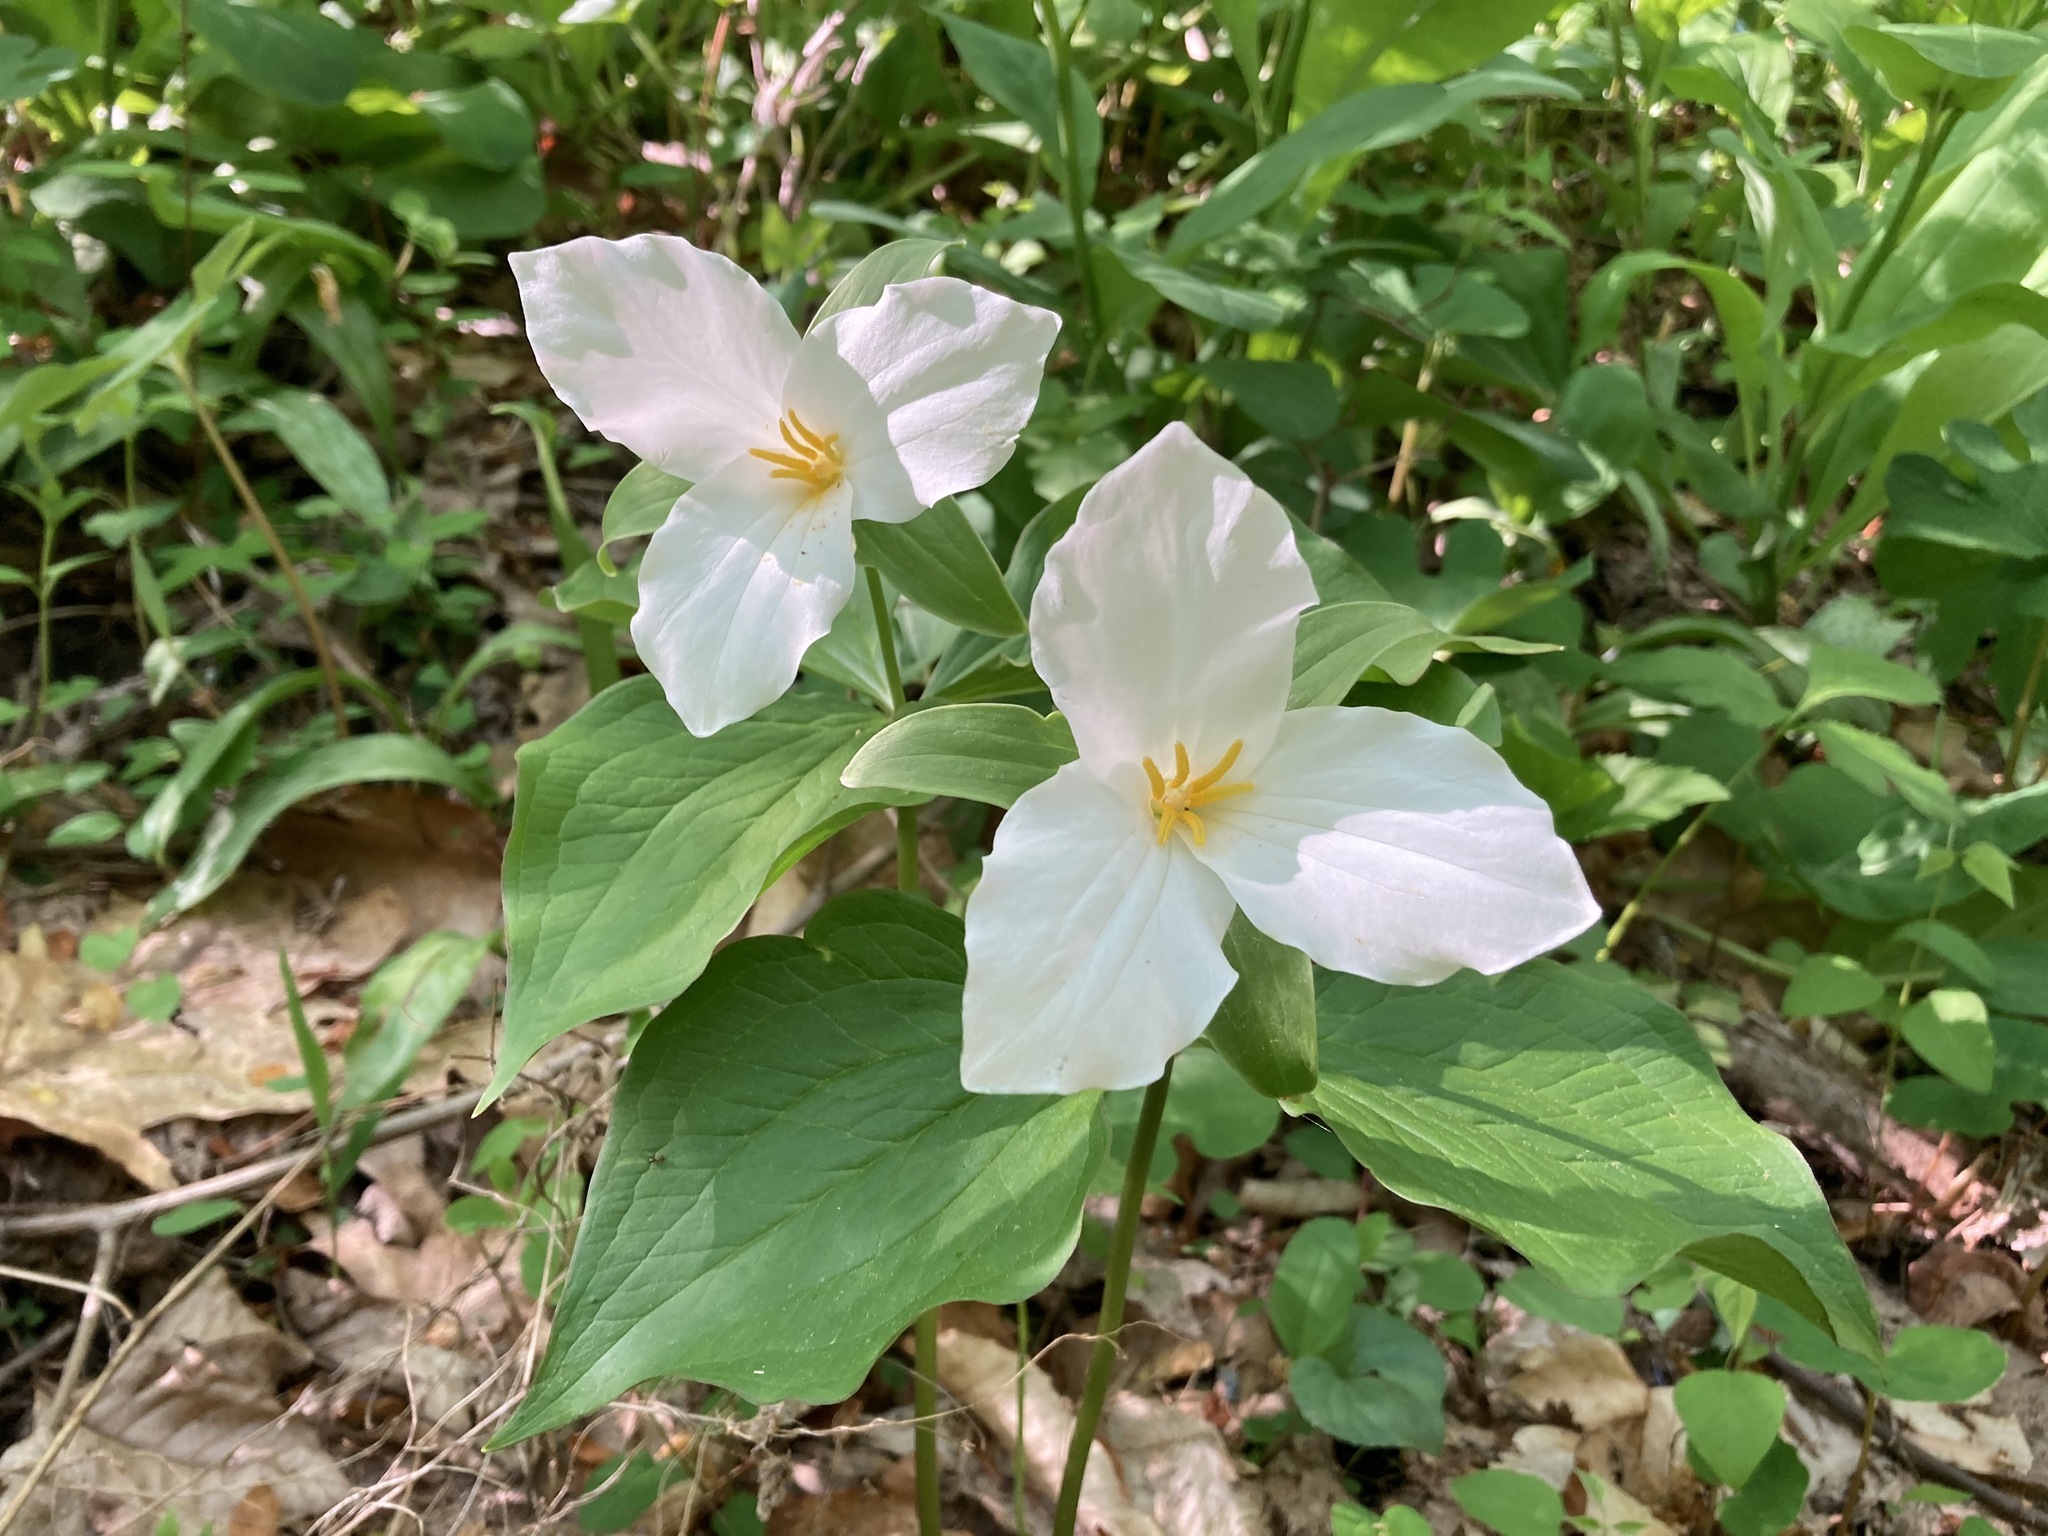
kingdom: Plantae
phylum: Tracheophyta
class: Liliopsida
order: Liliales
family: Melanthiaceae
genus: Trillium
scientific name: Trillium grandiflorum
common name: Great white trillium
